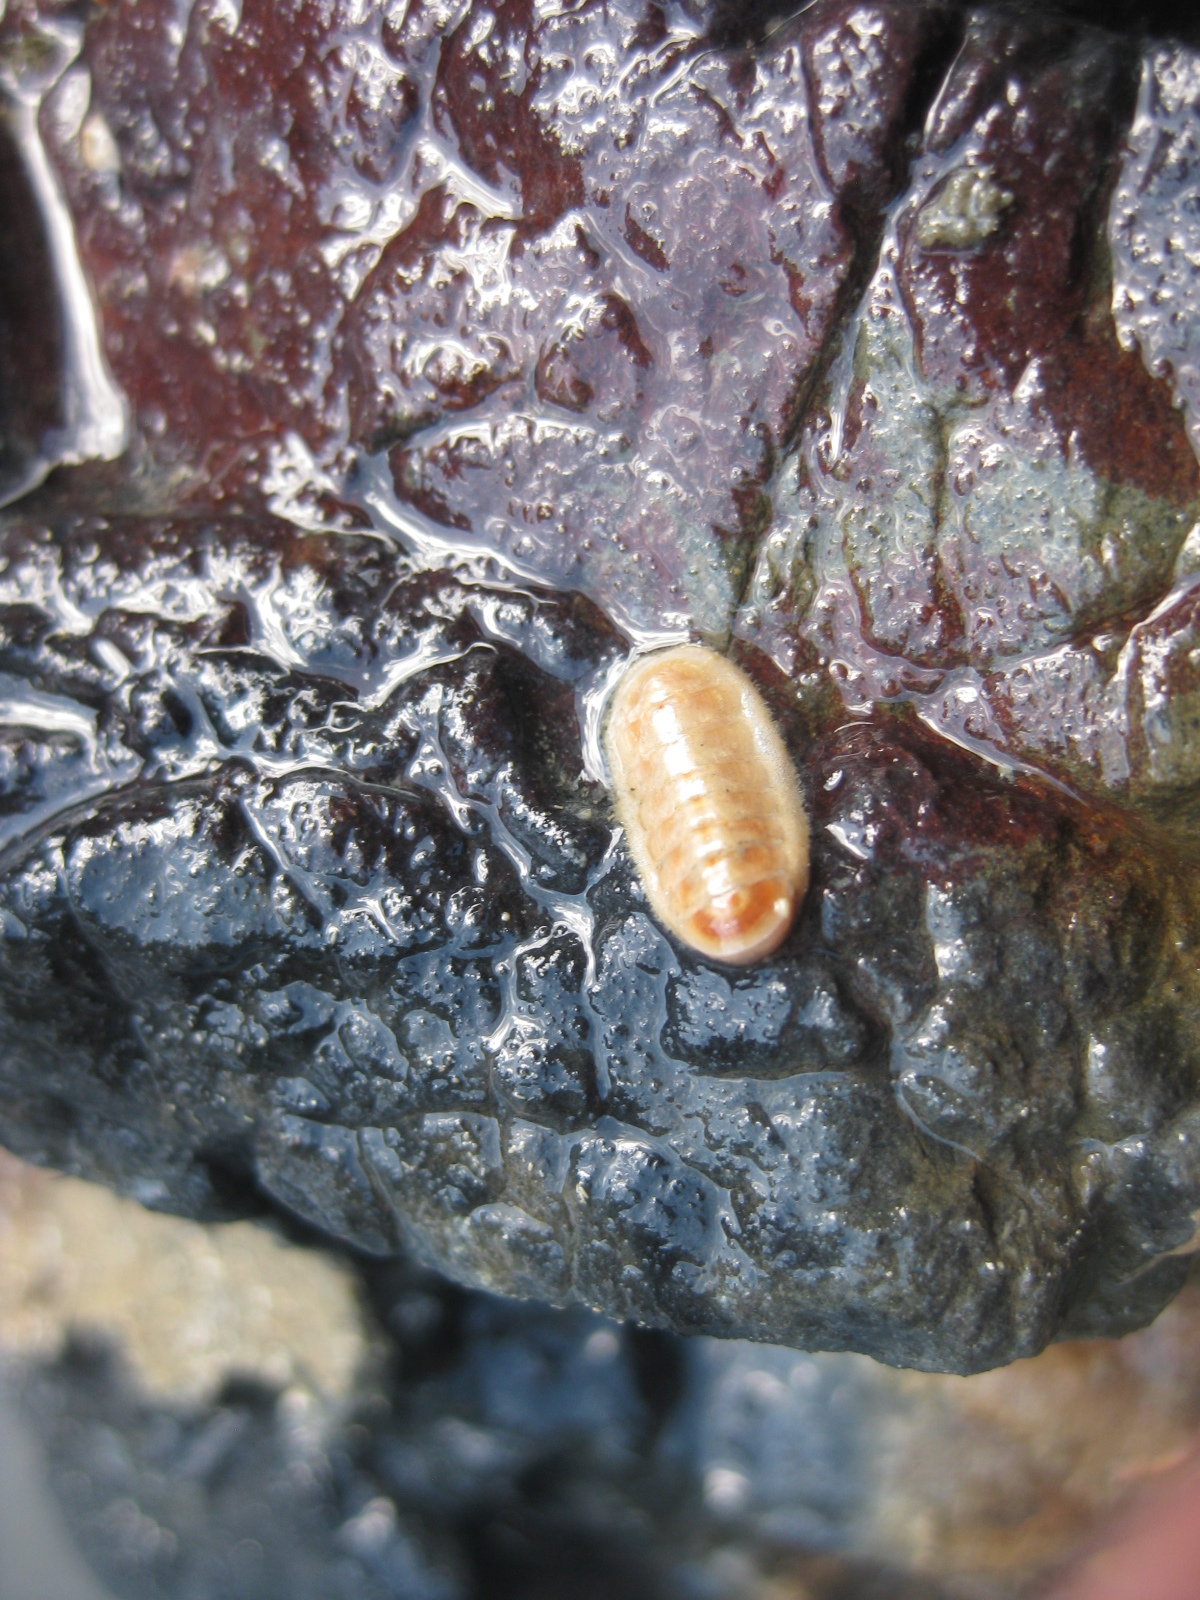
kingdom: Animalia
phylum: Mollusca
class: Polyplacophora
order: Lepidopleurida
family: Leptochitonidae
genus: Leptochiton
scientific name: Leptochiton inquinatus
